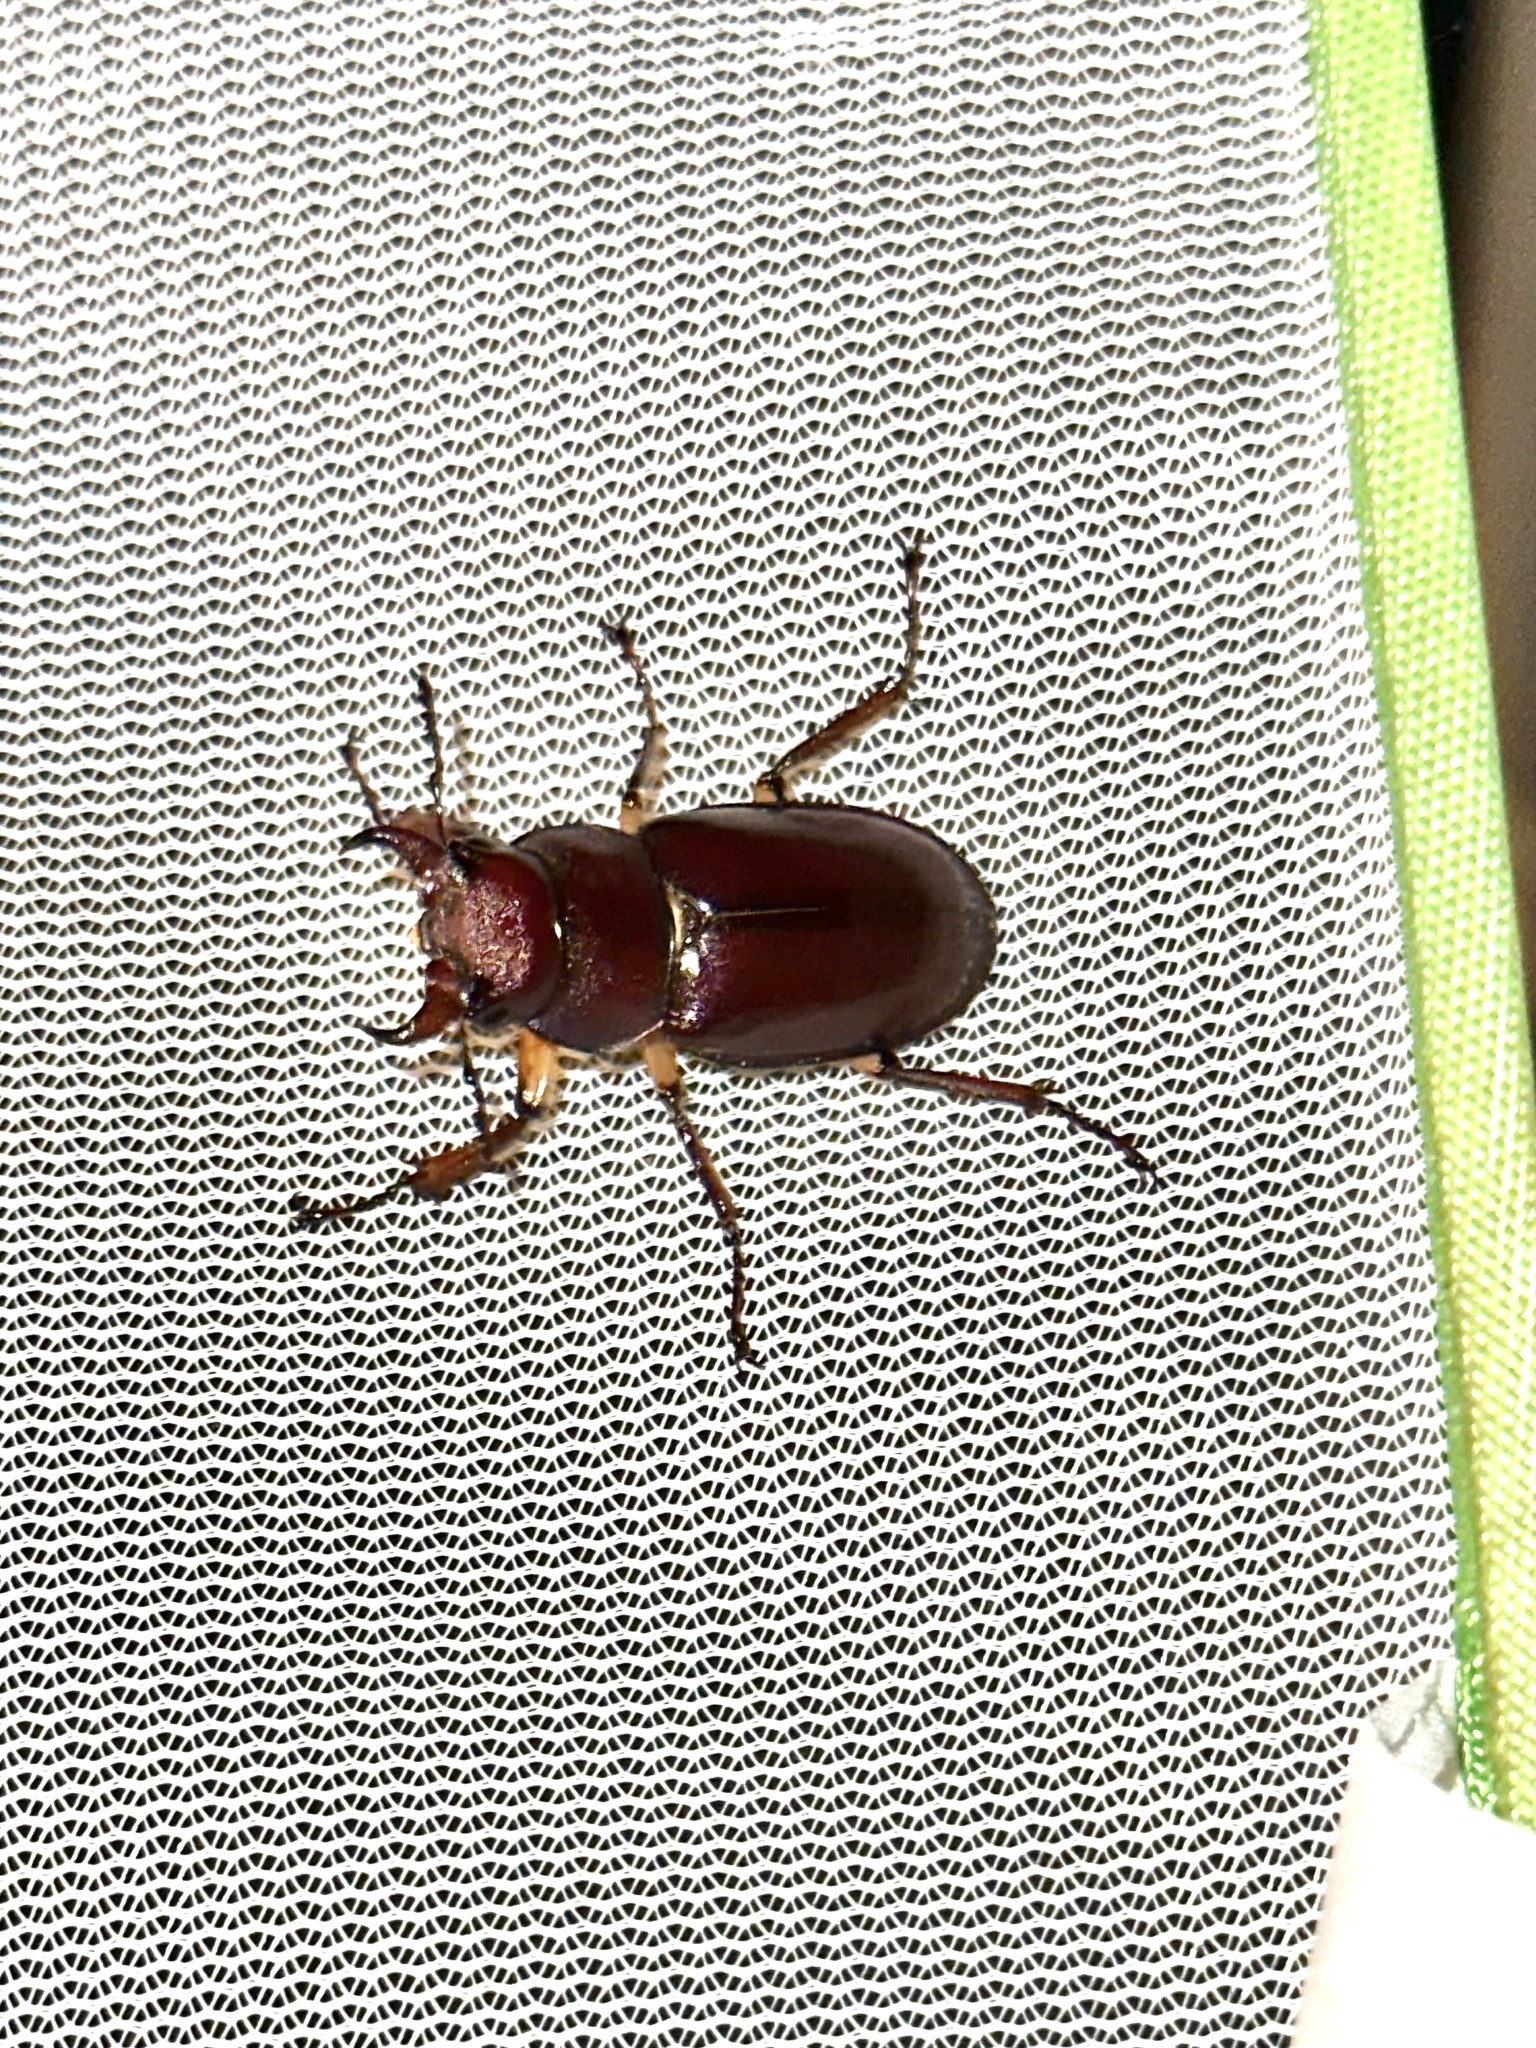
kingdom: Animalia
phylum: Arthropoda
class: Insecta
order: Coleoptera
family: Lucanidae
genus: Lucanus
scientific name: Lucanus capreolus
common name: Stag beetle
